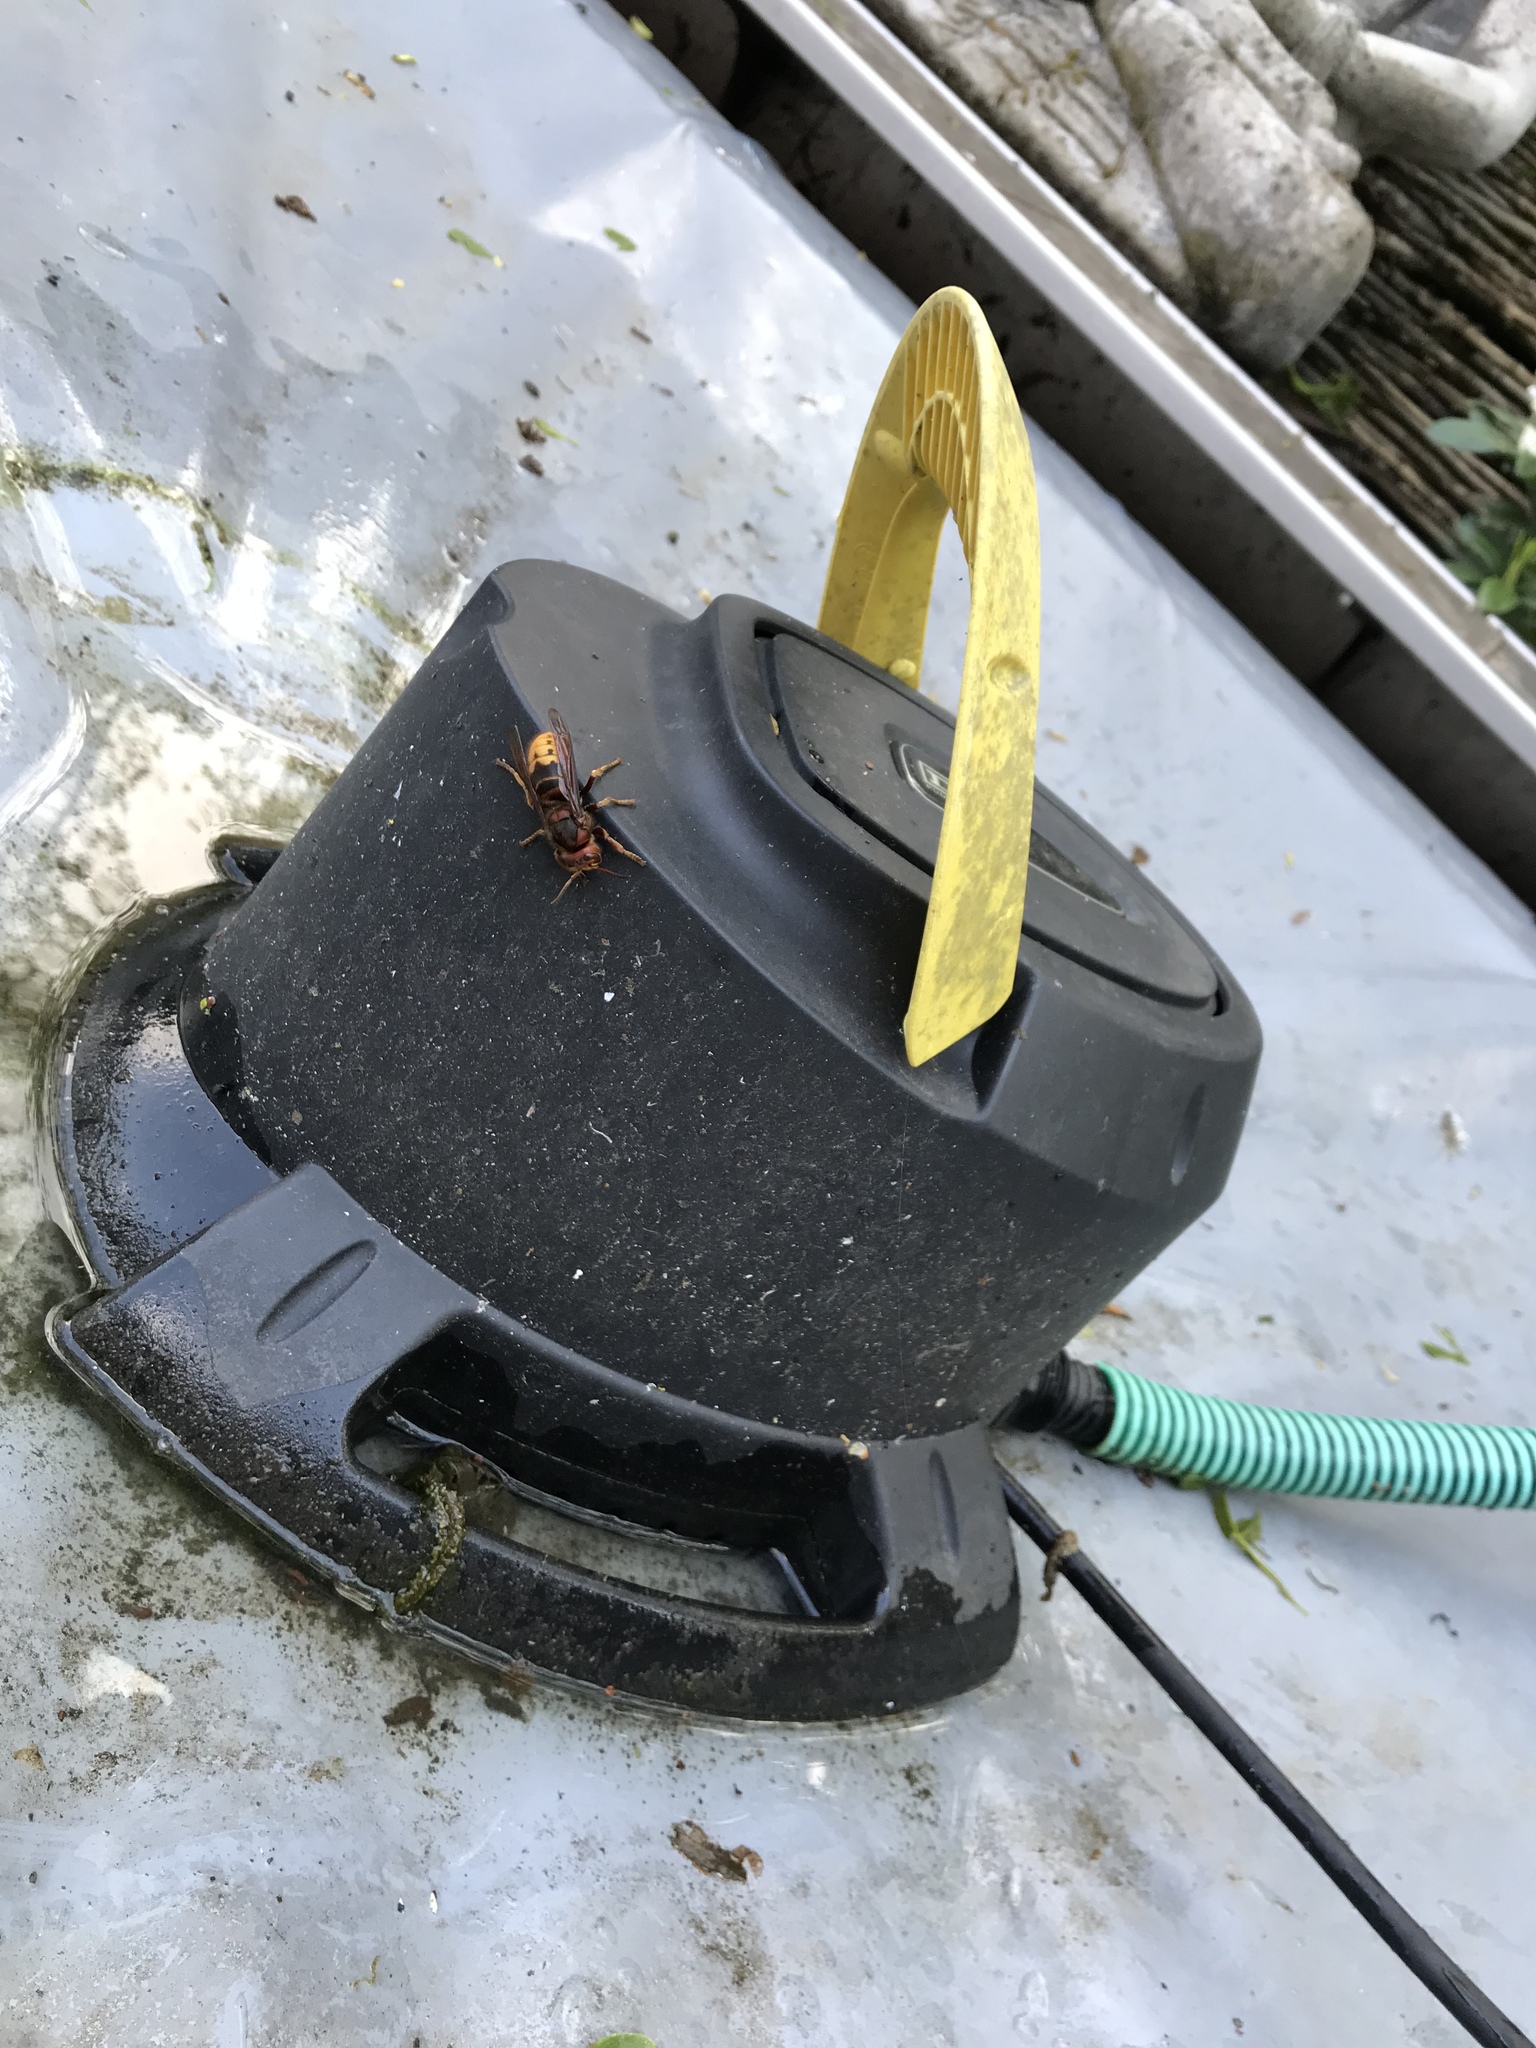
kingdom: Animalia
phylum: Arthropoda
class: Insecta
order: Hymenoptera
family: Vespidae
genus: Vespa
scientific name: Vespa crabro
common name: Hornet
